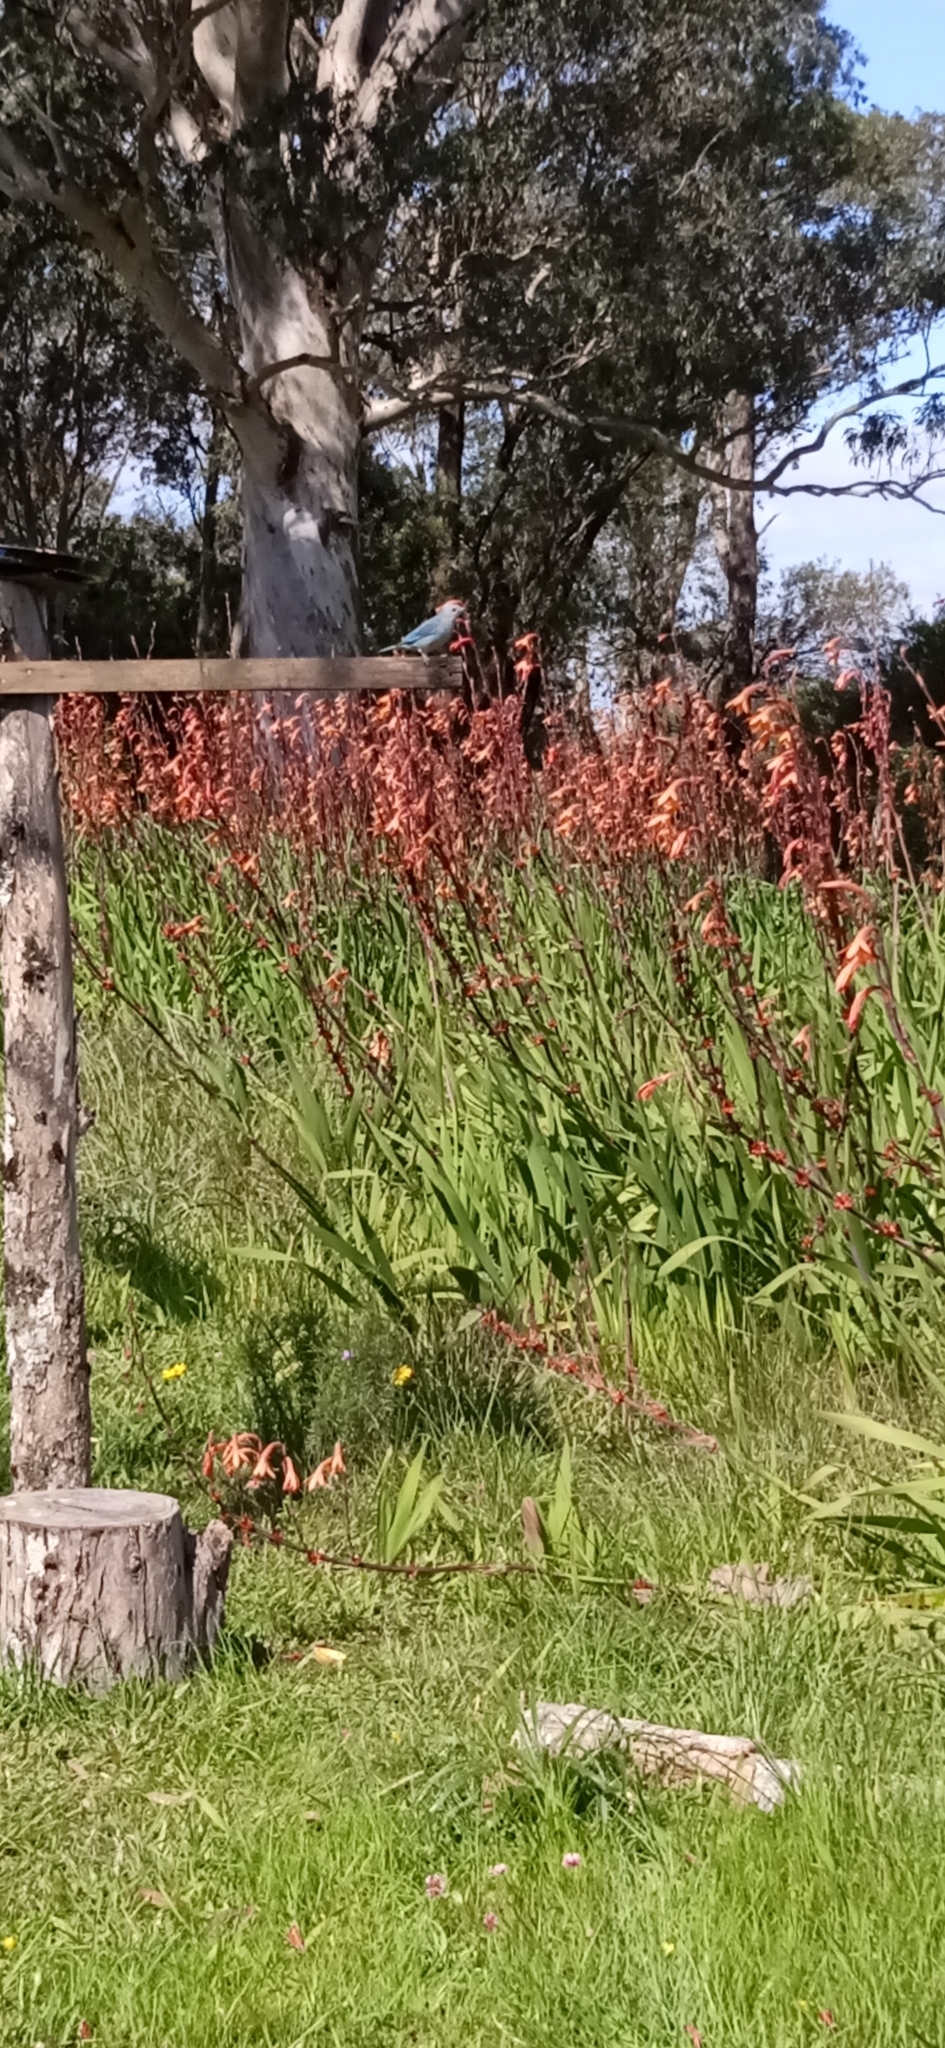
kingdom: Animalia
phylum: Chordata
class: Aves
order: Passeriformes
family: Thraupidae
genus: Thraupis
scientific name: Thraupis sayaca
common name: Sayaca tanager
